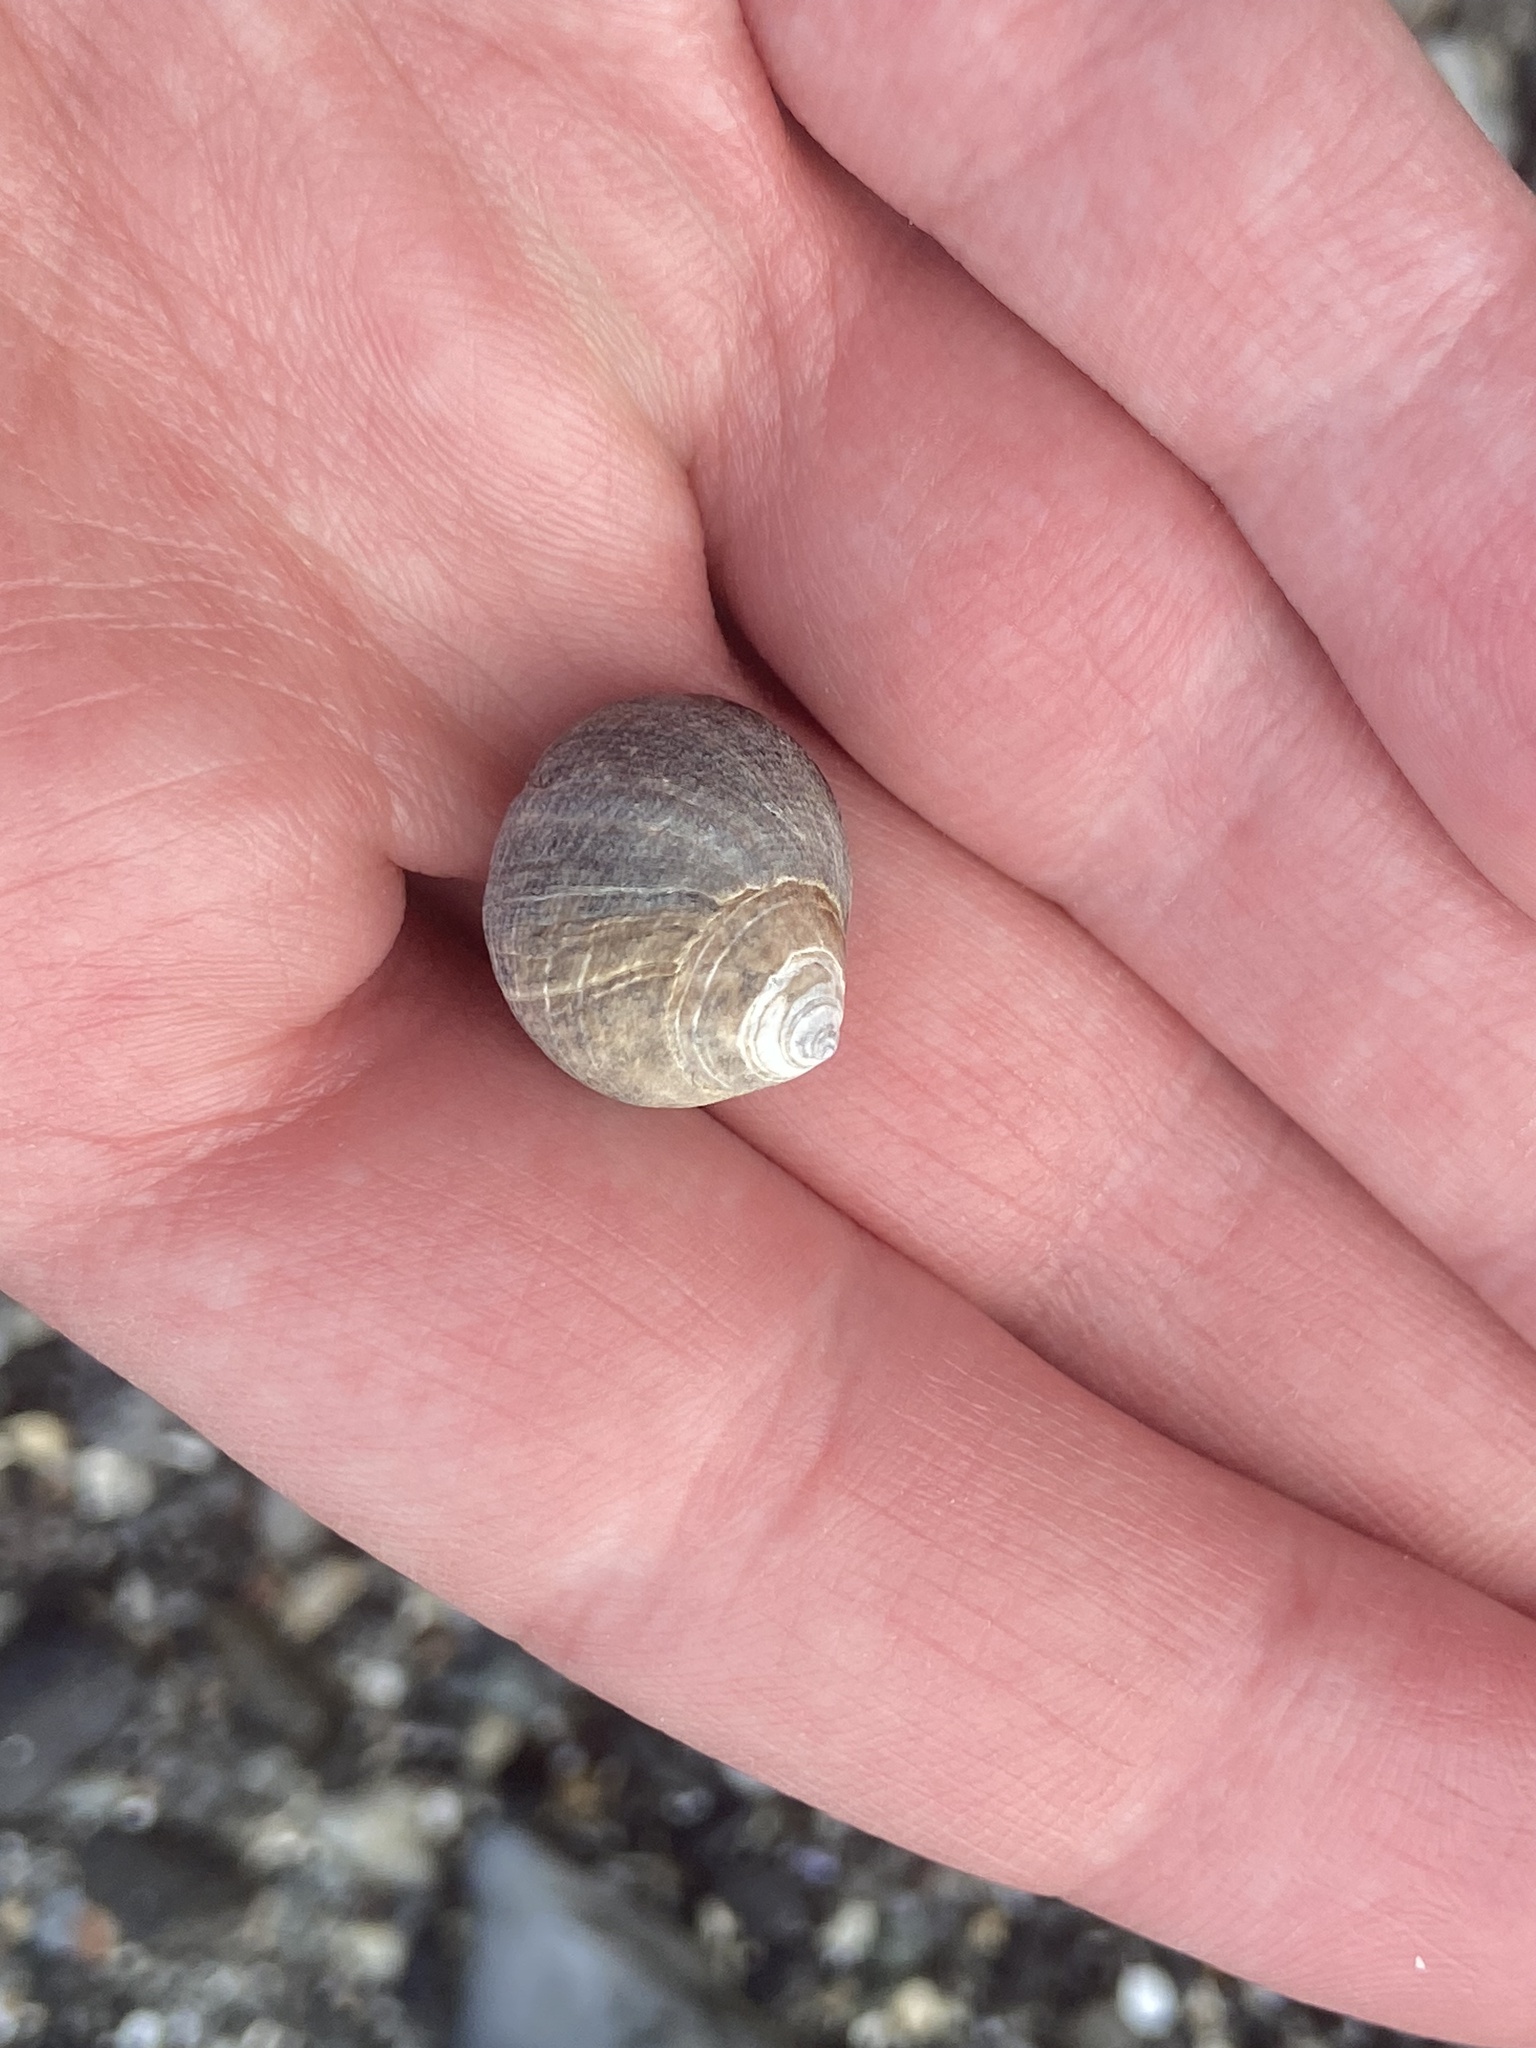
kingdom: Animalia
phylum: Mollusca
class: Gastropoda
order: Littorinimorpha
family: Littorinidae
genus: Littorina
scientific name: Littorina littorea
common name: Common periwinkle
